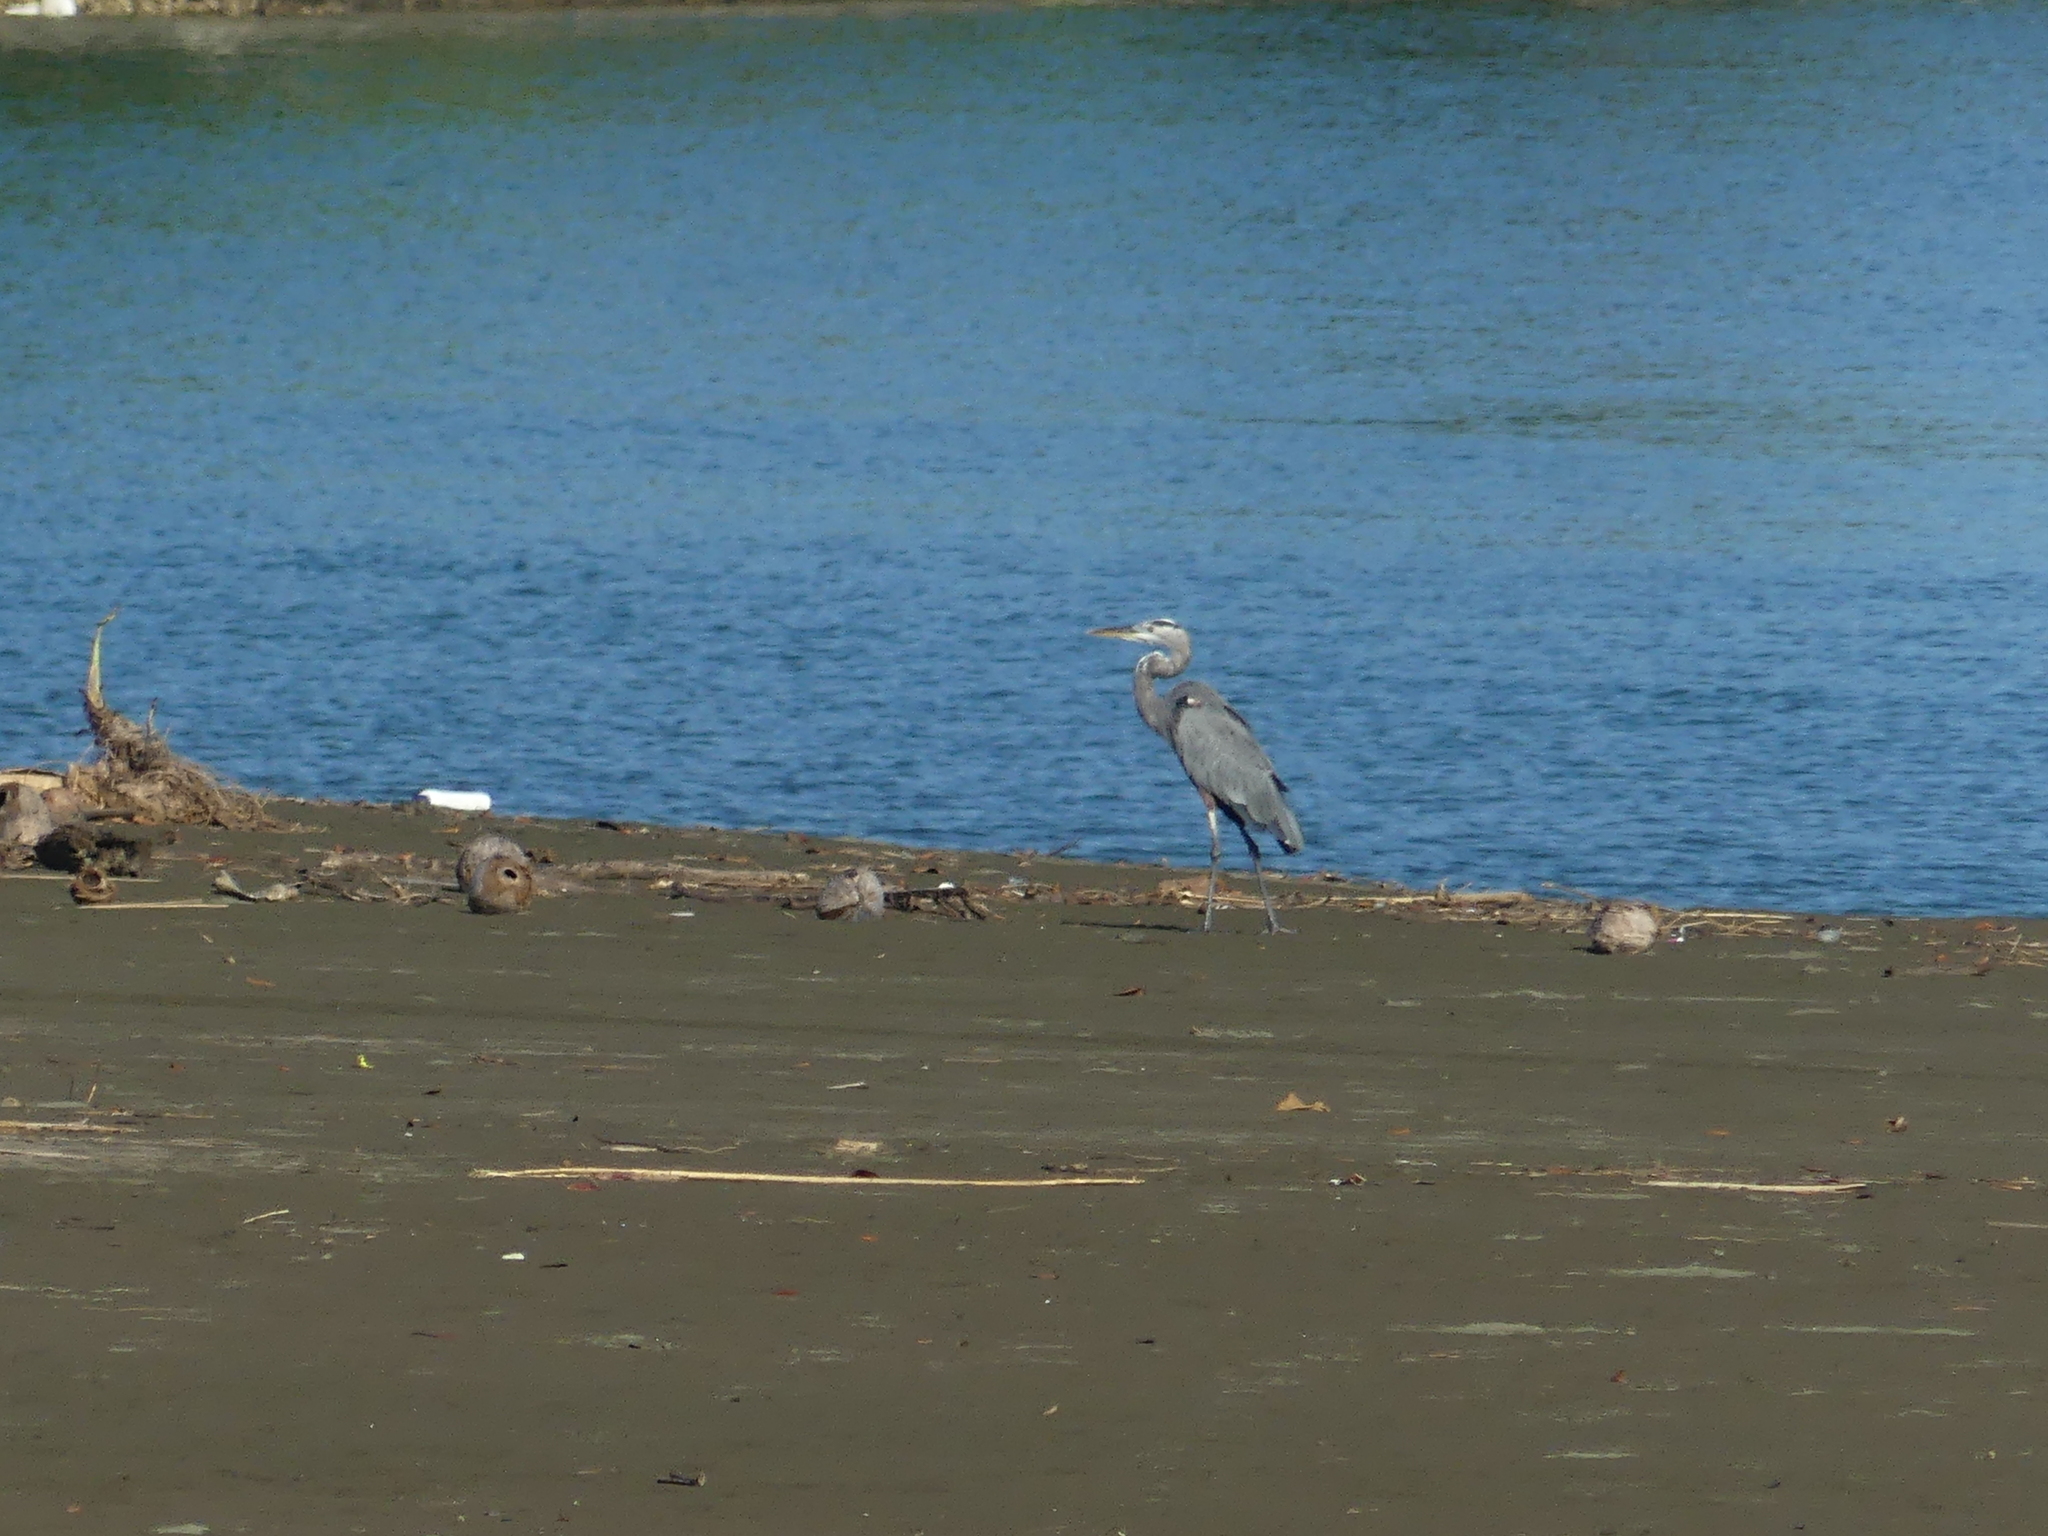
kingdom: Animalia
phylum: Chordata
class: Aves
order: Pelecaniformes
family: Ardeidae
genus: Ardea
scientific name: Ardea herodias
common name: Great blue heron
